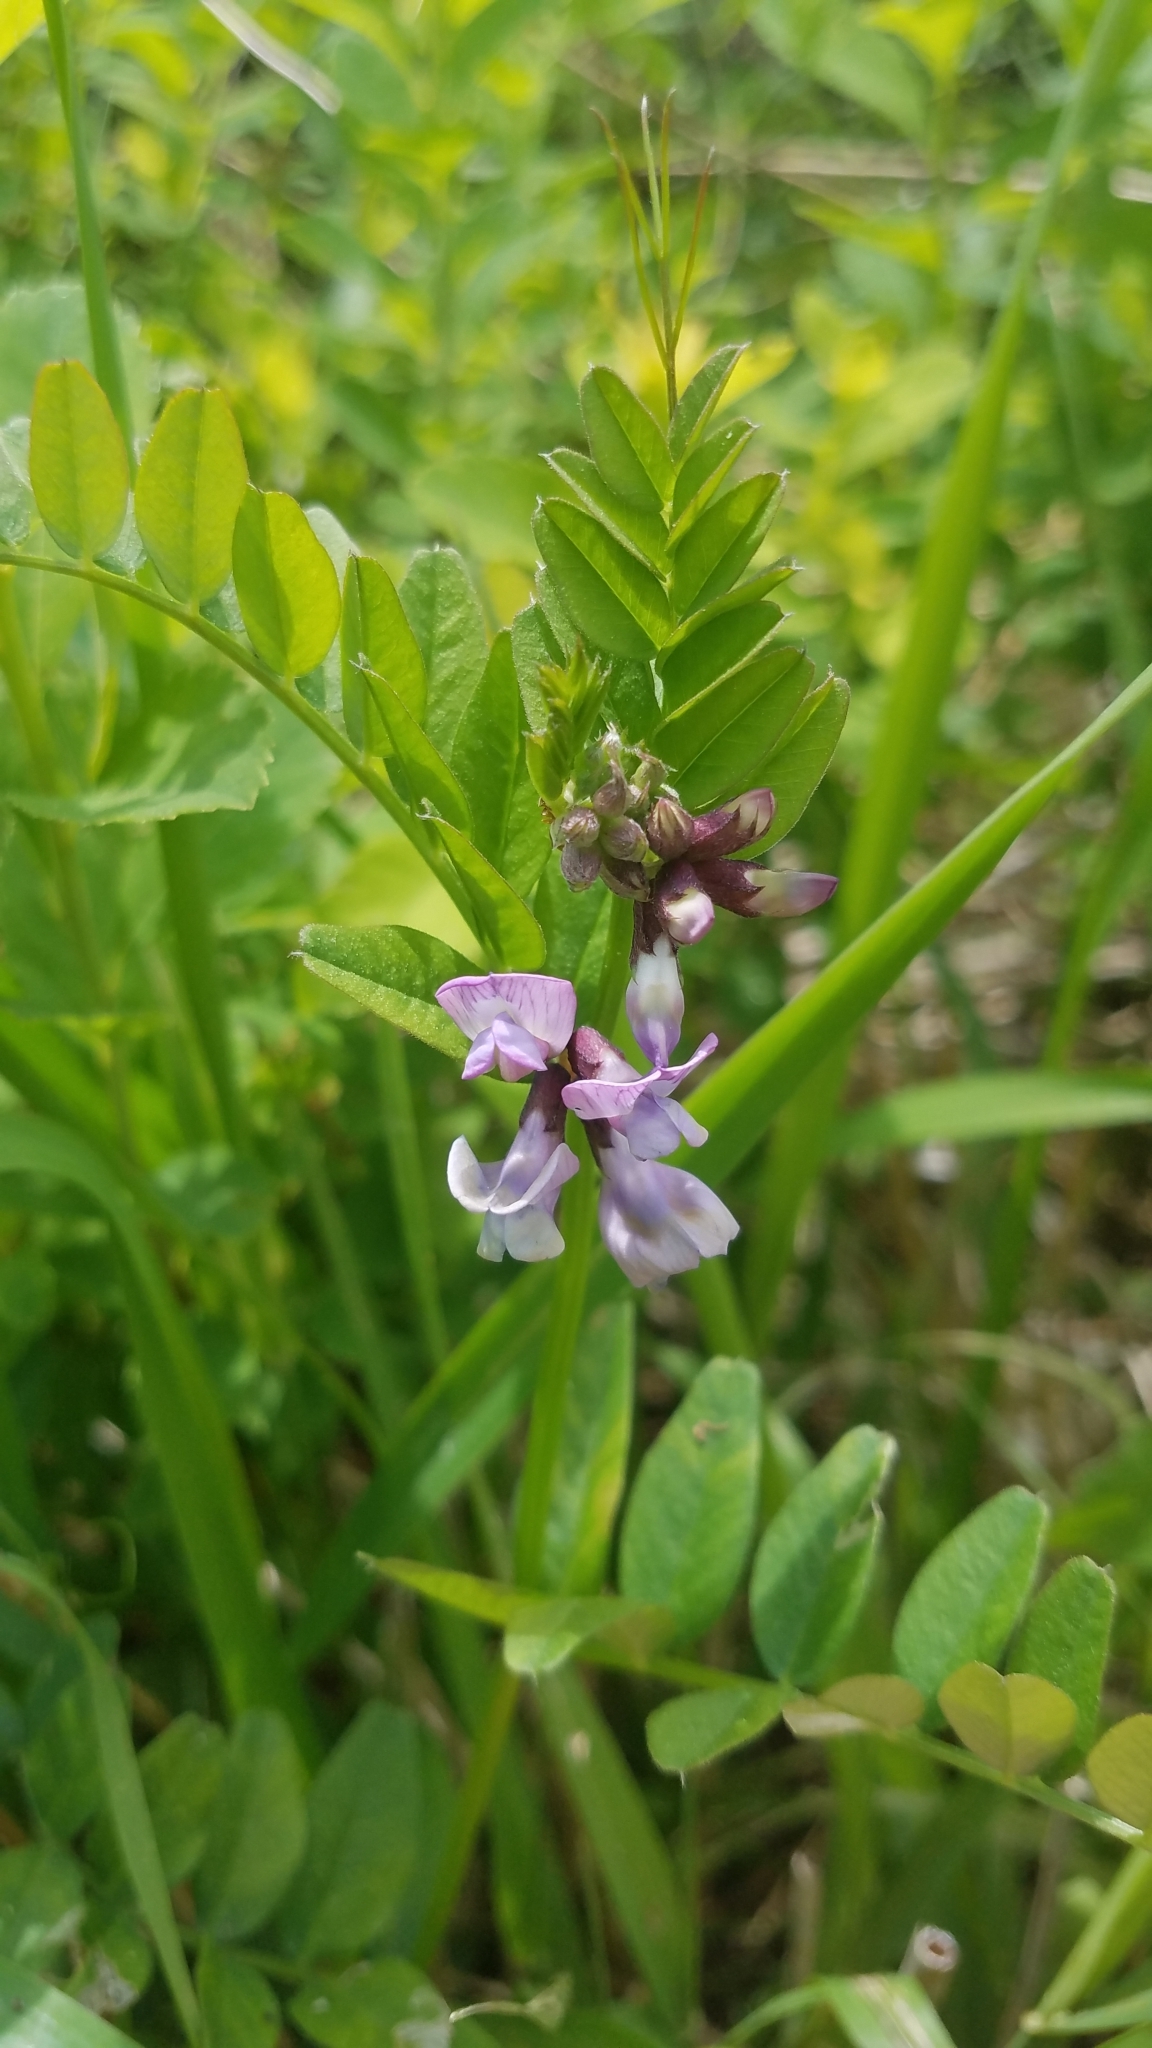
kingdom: Plantae
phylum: Tracheophyta
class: Magnoliopsida
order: Fabales
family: Fabaceae
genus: Vicia
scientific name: Vicia sepium
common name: Bush vetch
